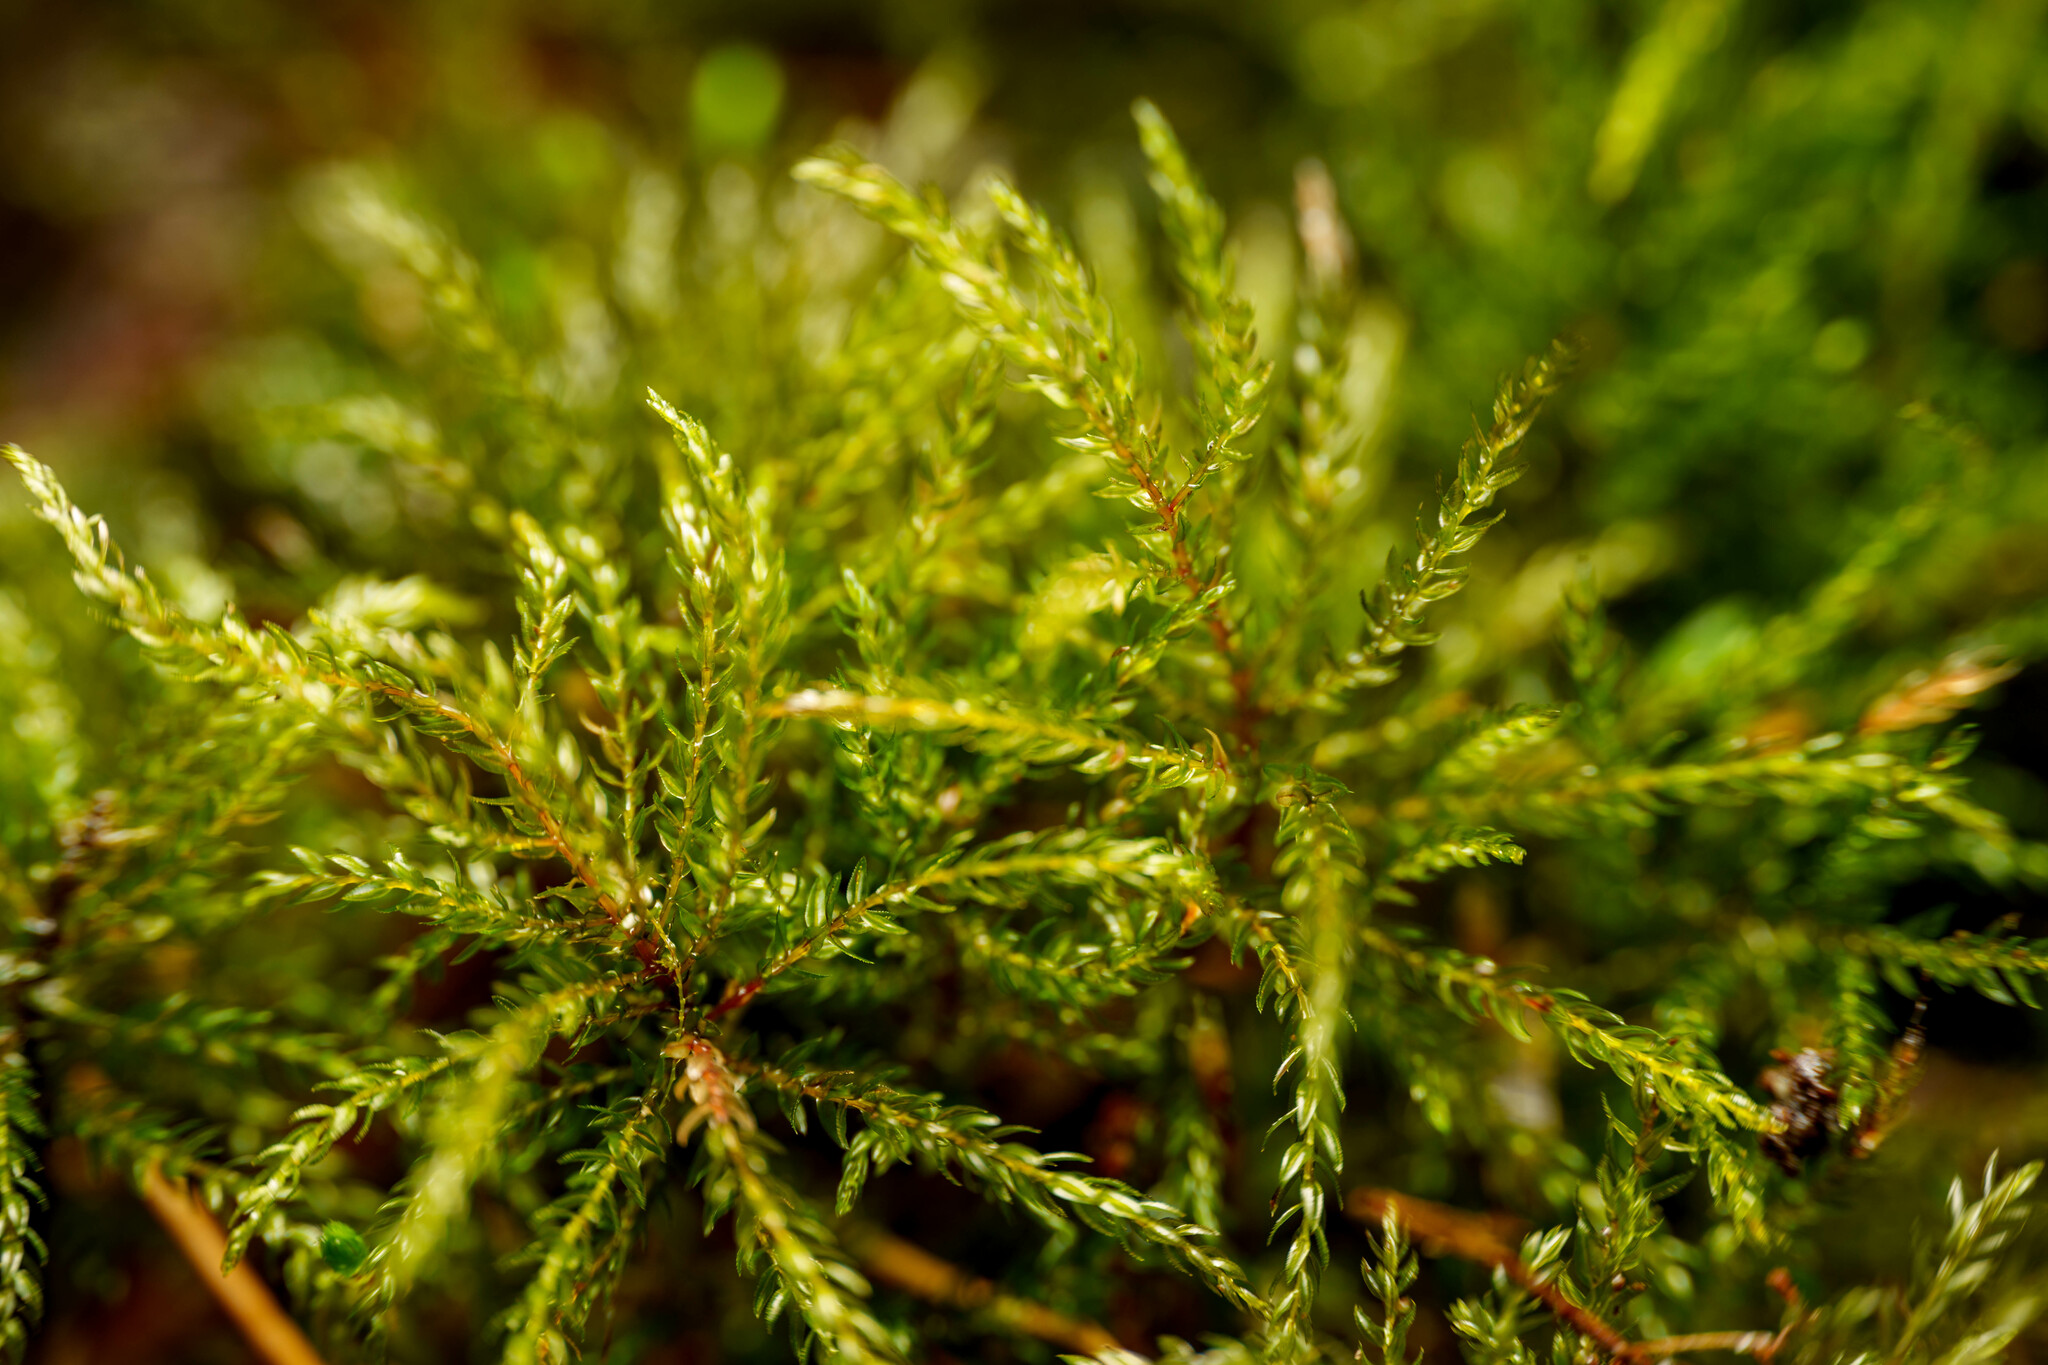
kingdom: Plantae
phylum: Bryophyta
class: Bryopsida
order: Bryales
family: Mniaceae
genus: Leucolepis
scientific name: Leucolepis acanthoneura
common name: Leucolepis umbrella moss
